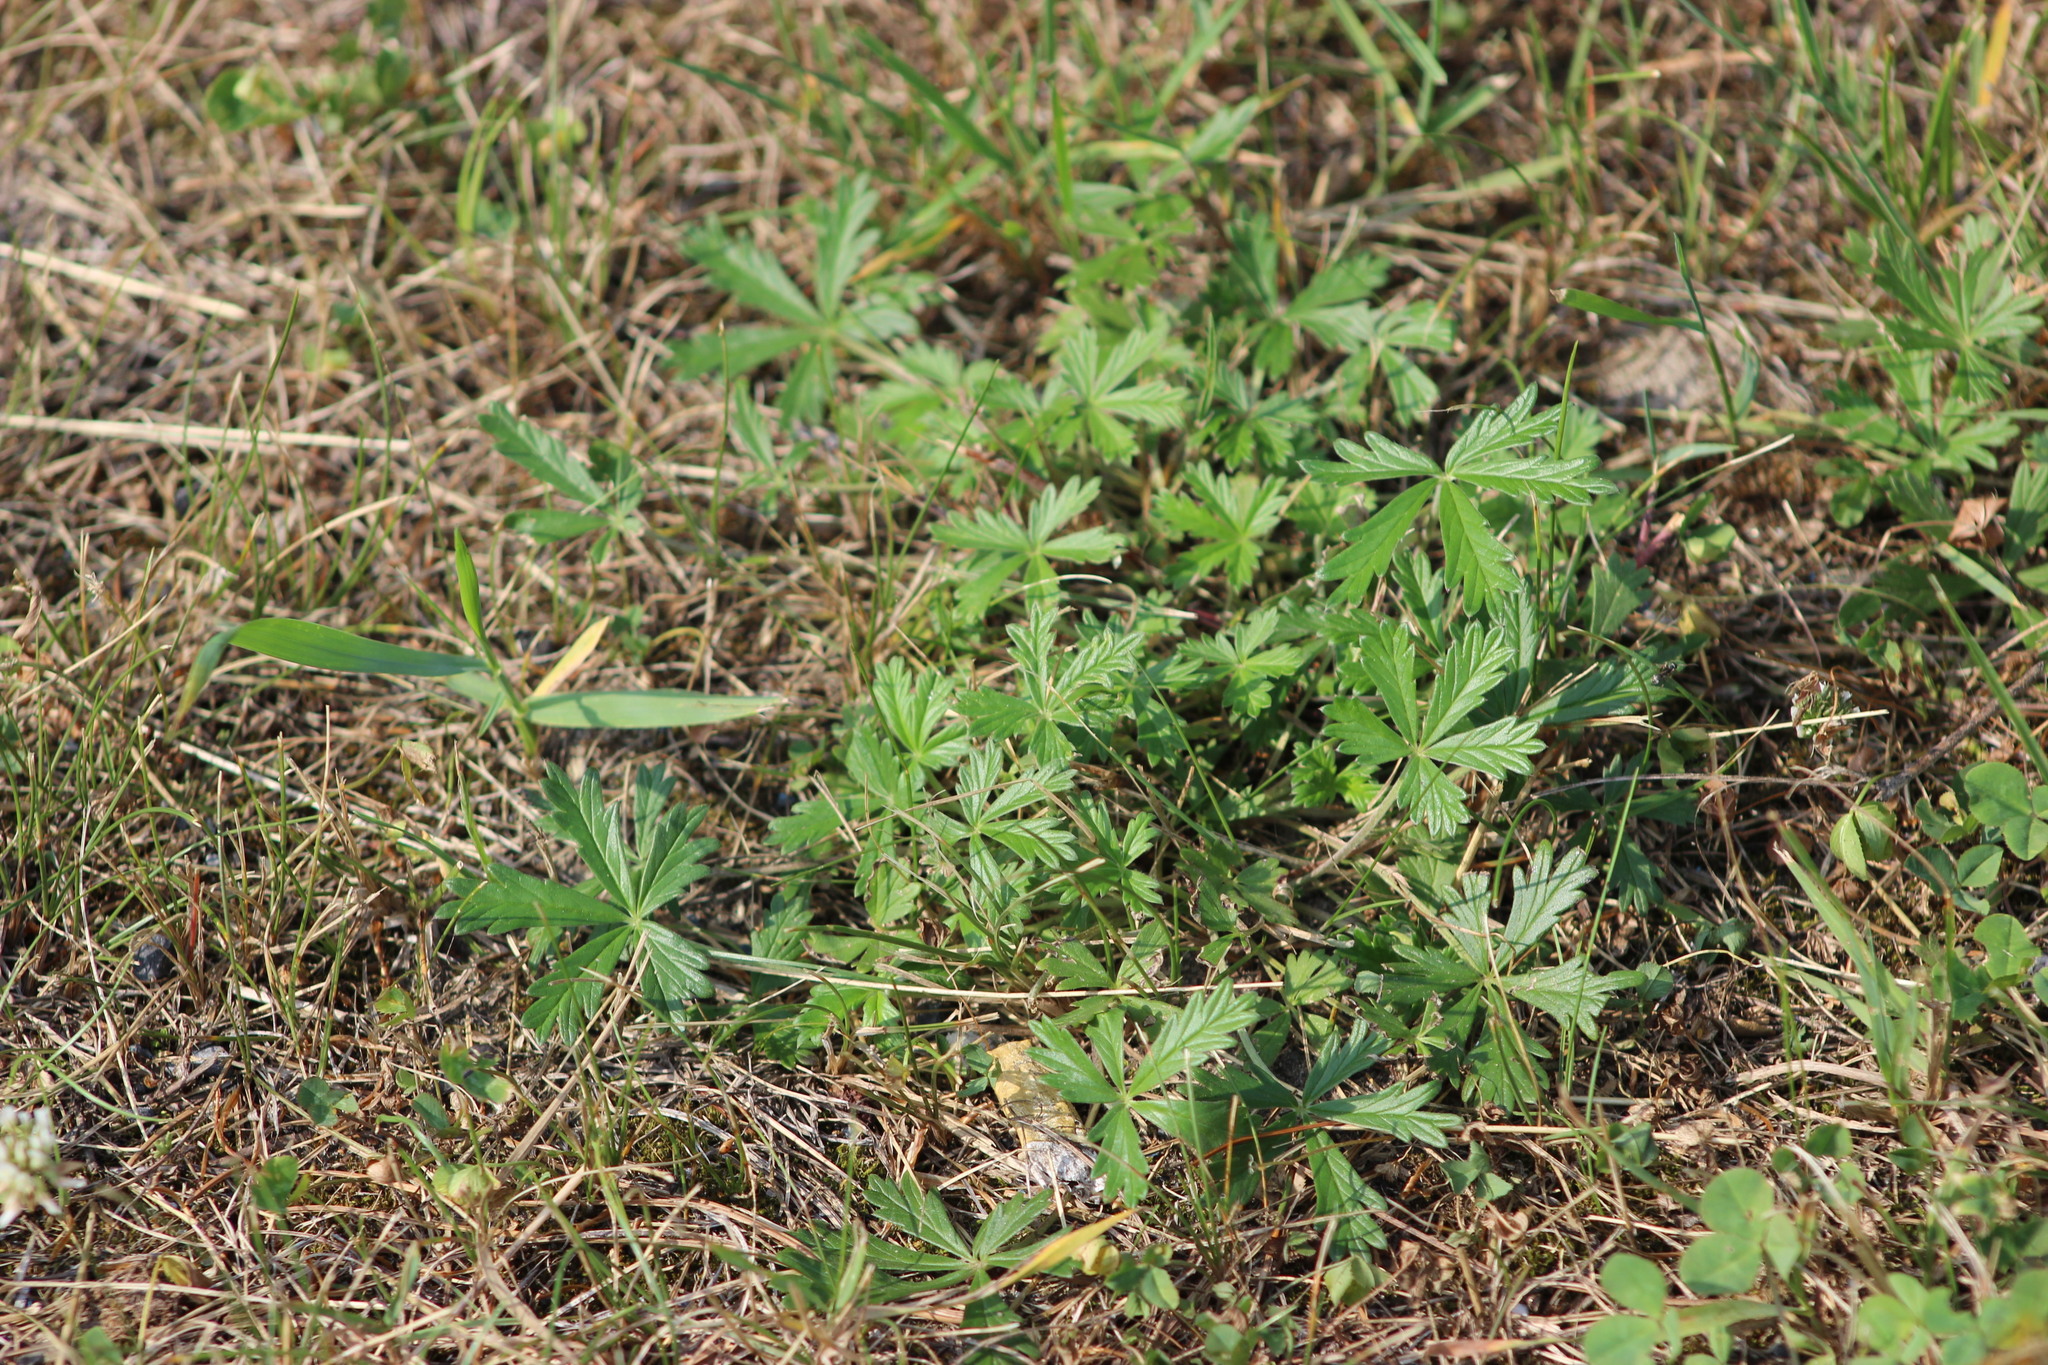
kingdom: Plantae
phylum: Tracheophyta
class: Magnoliopsida
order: Rosales
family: Rosaceae
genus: Potentilla
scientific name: Potentilla argentea
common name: Hoary cinquefoil
